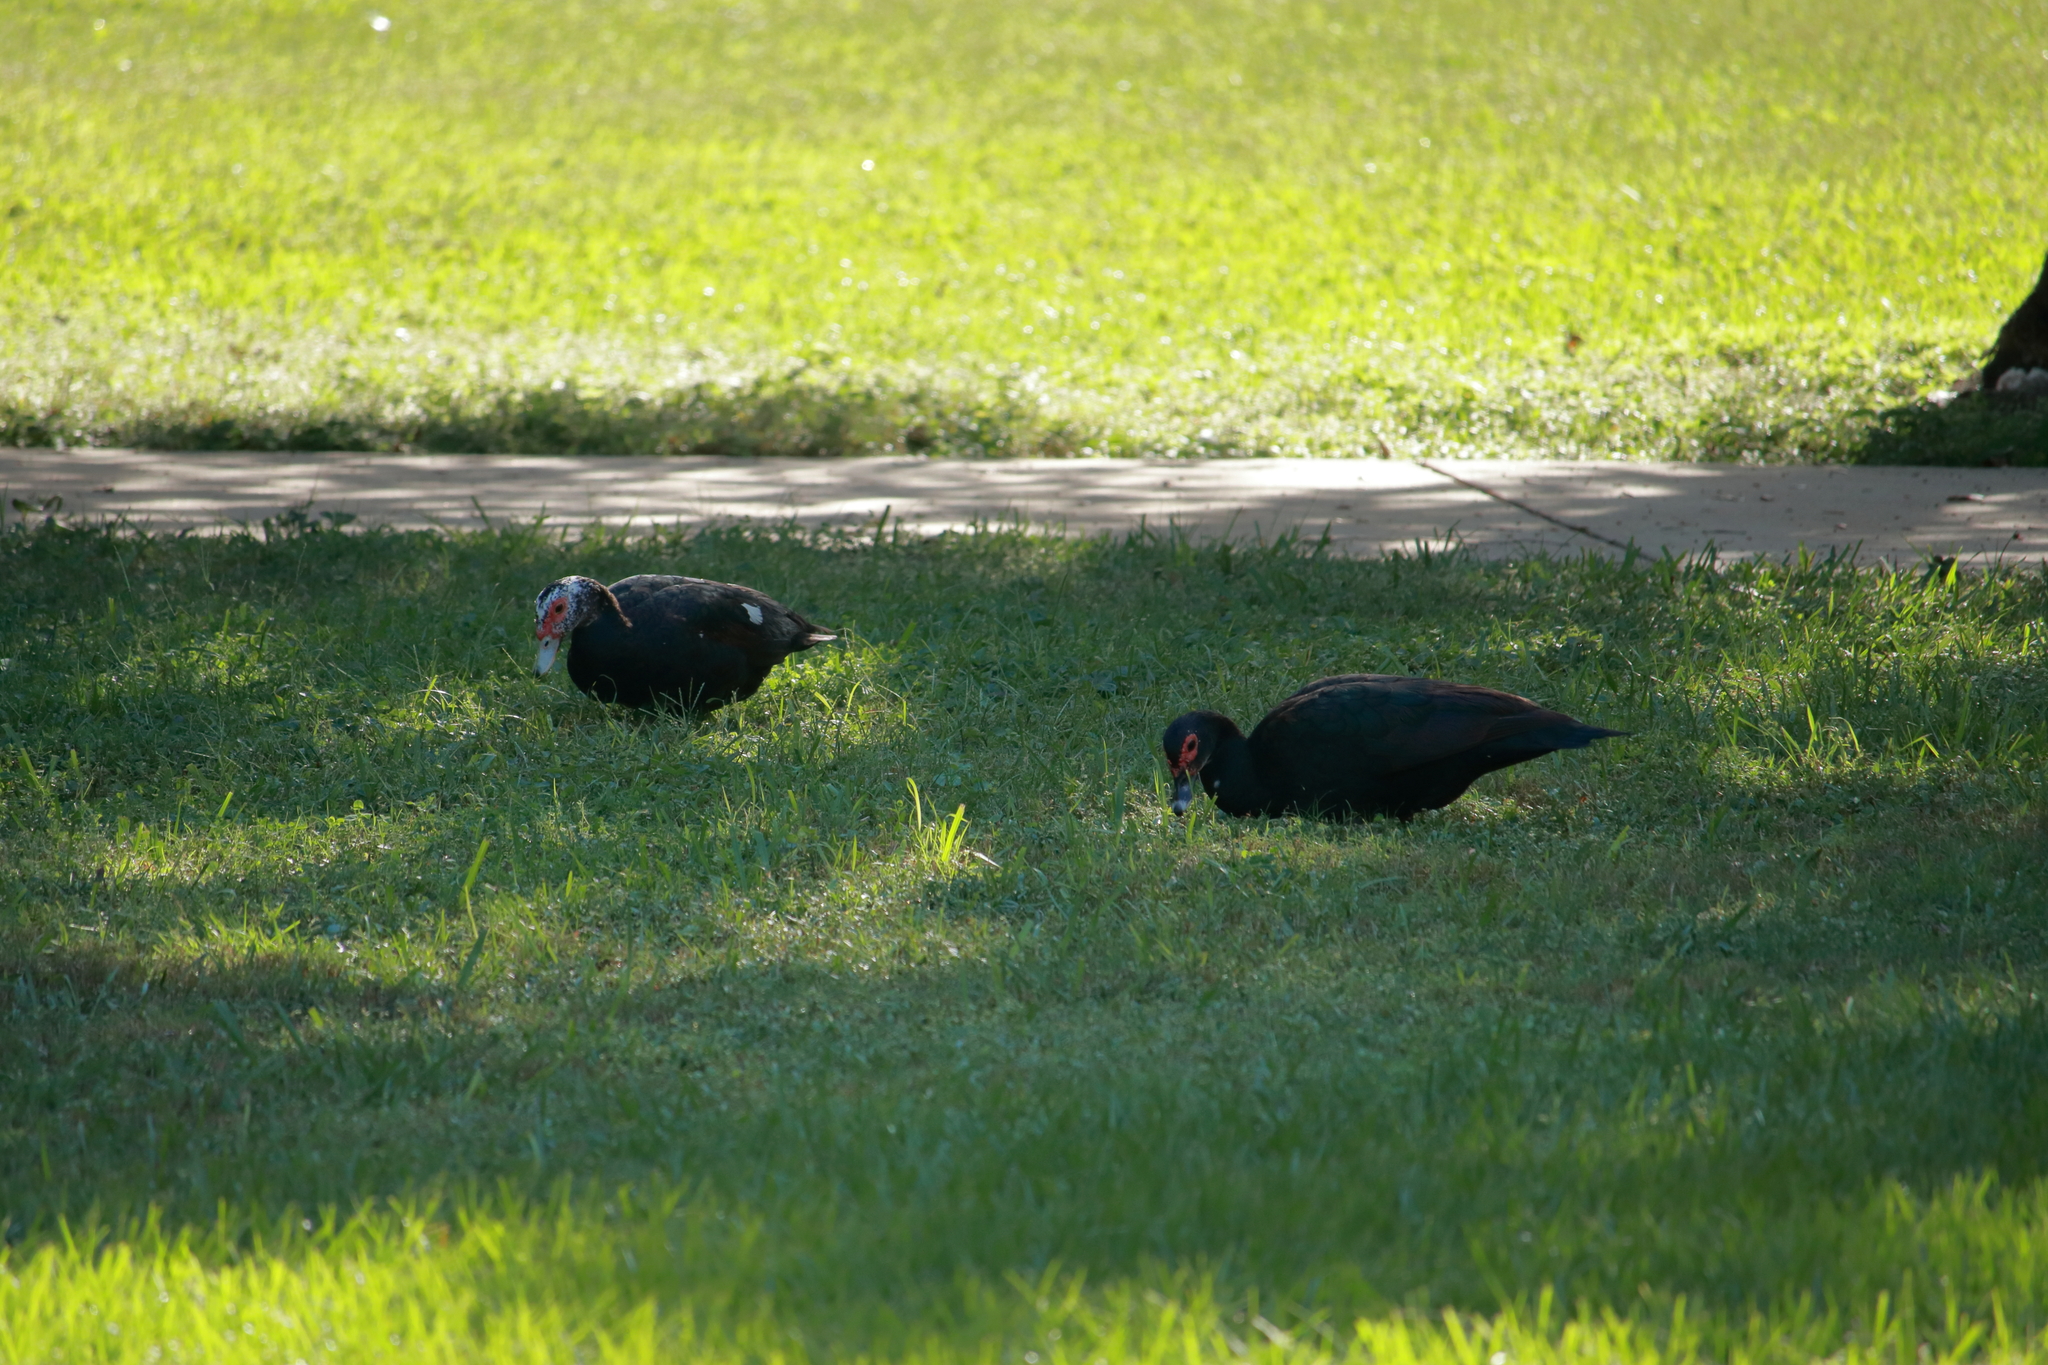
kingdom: Animalia
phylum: Chordata
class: Aves
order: Anseriformes
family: Anatidae
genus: Cairina
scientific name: Cairina moschata
